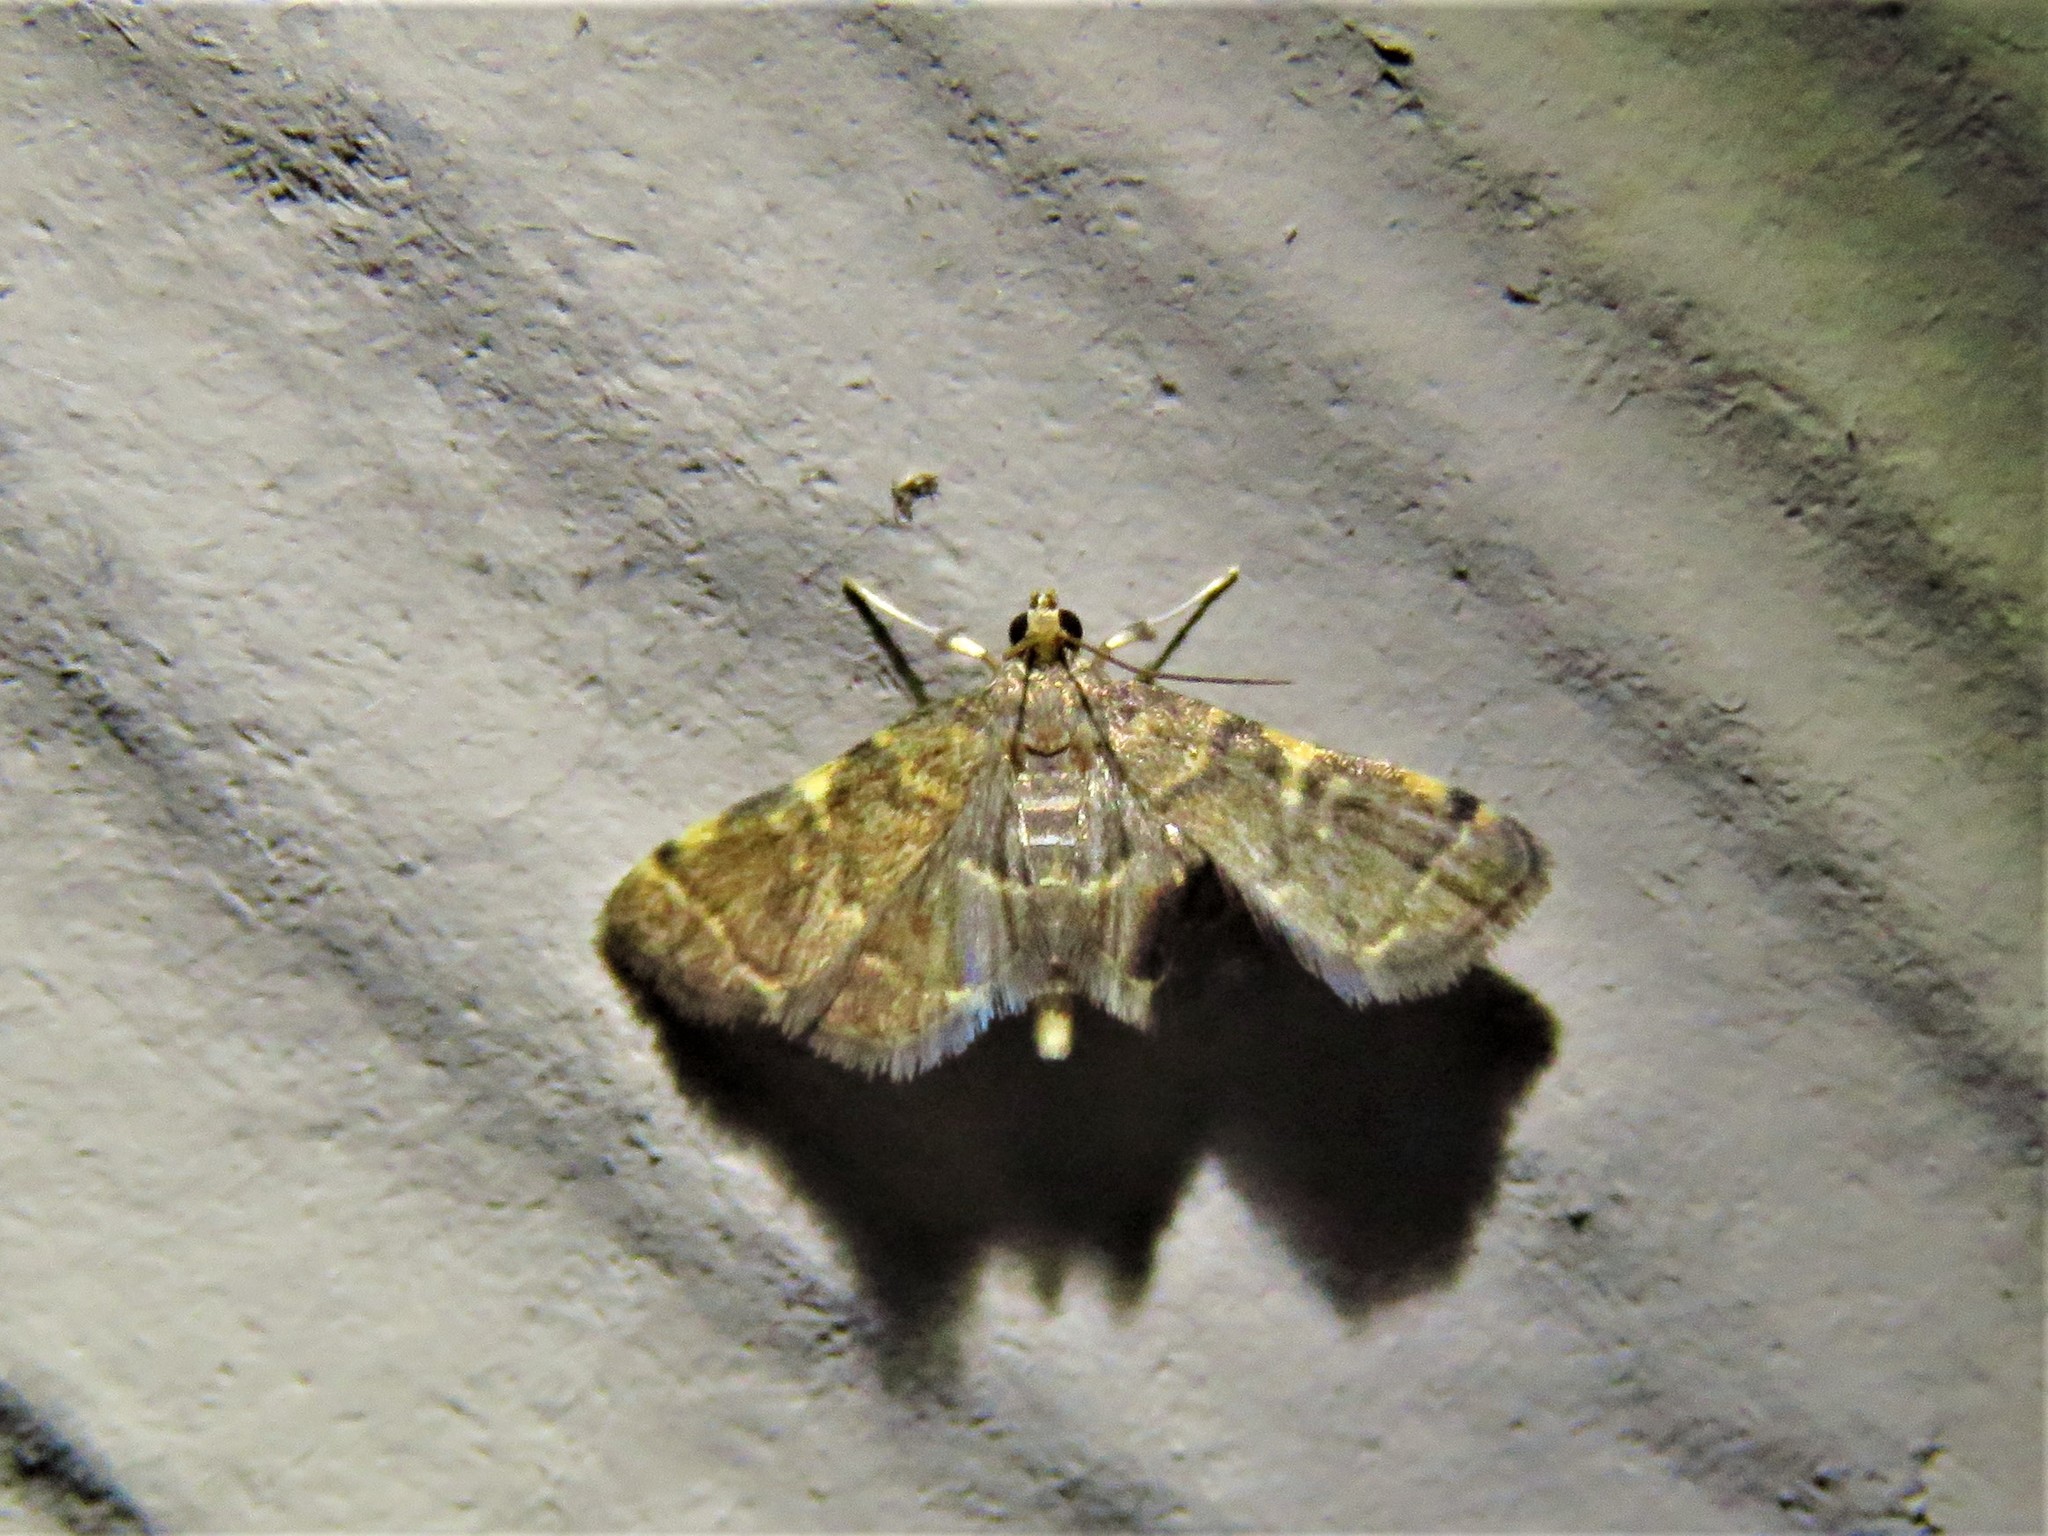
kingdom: Animalia
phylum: Arthropoda
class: Insecta
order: Lepidoptera
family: Crambidae
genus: Anageshna
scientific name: Anageshna primordialis
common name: Yellow-spotted webworm moth
